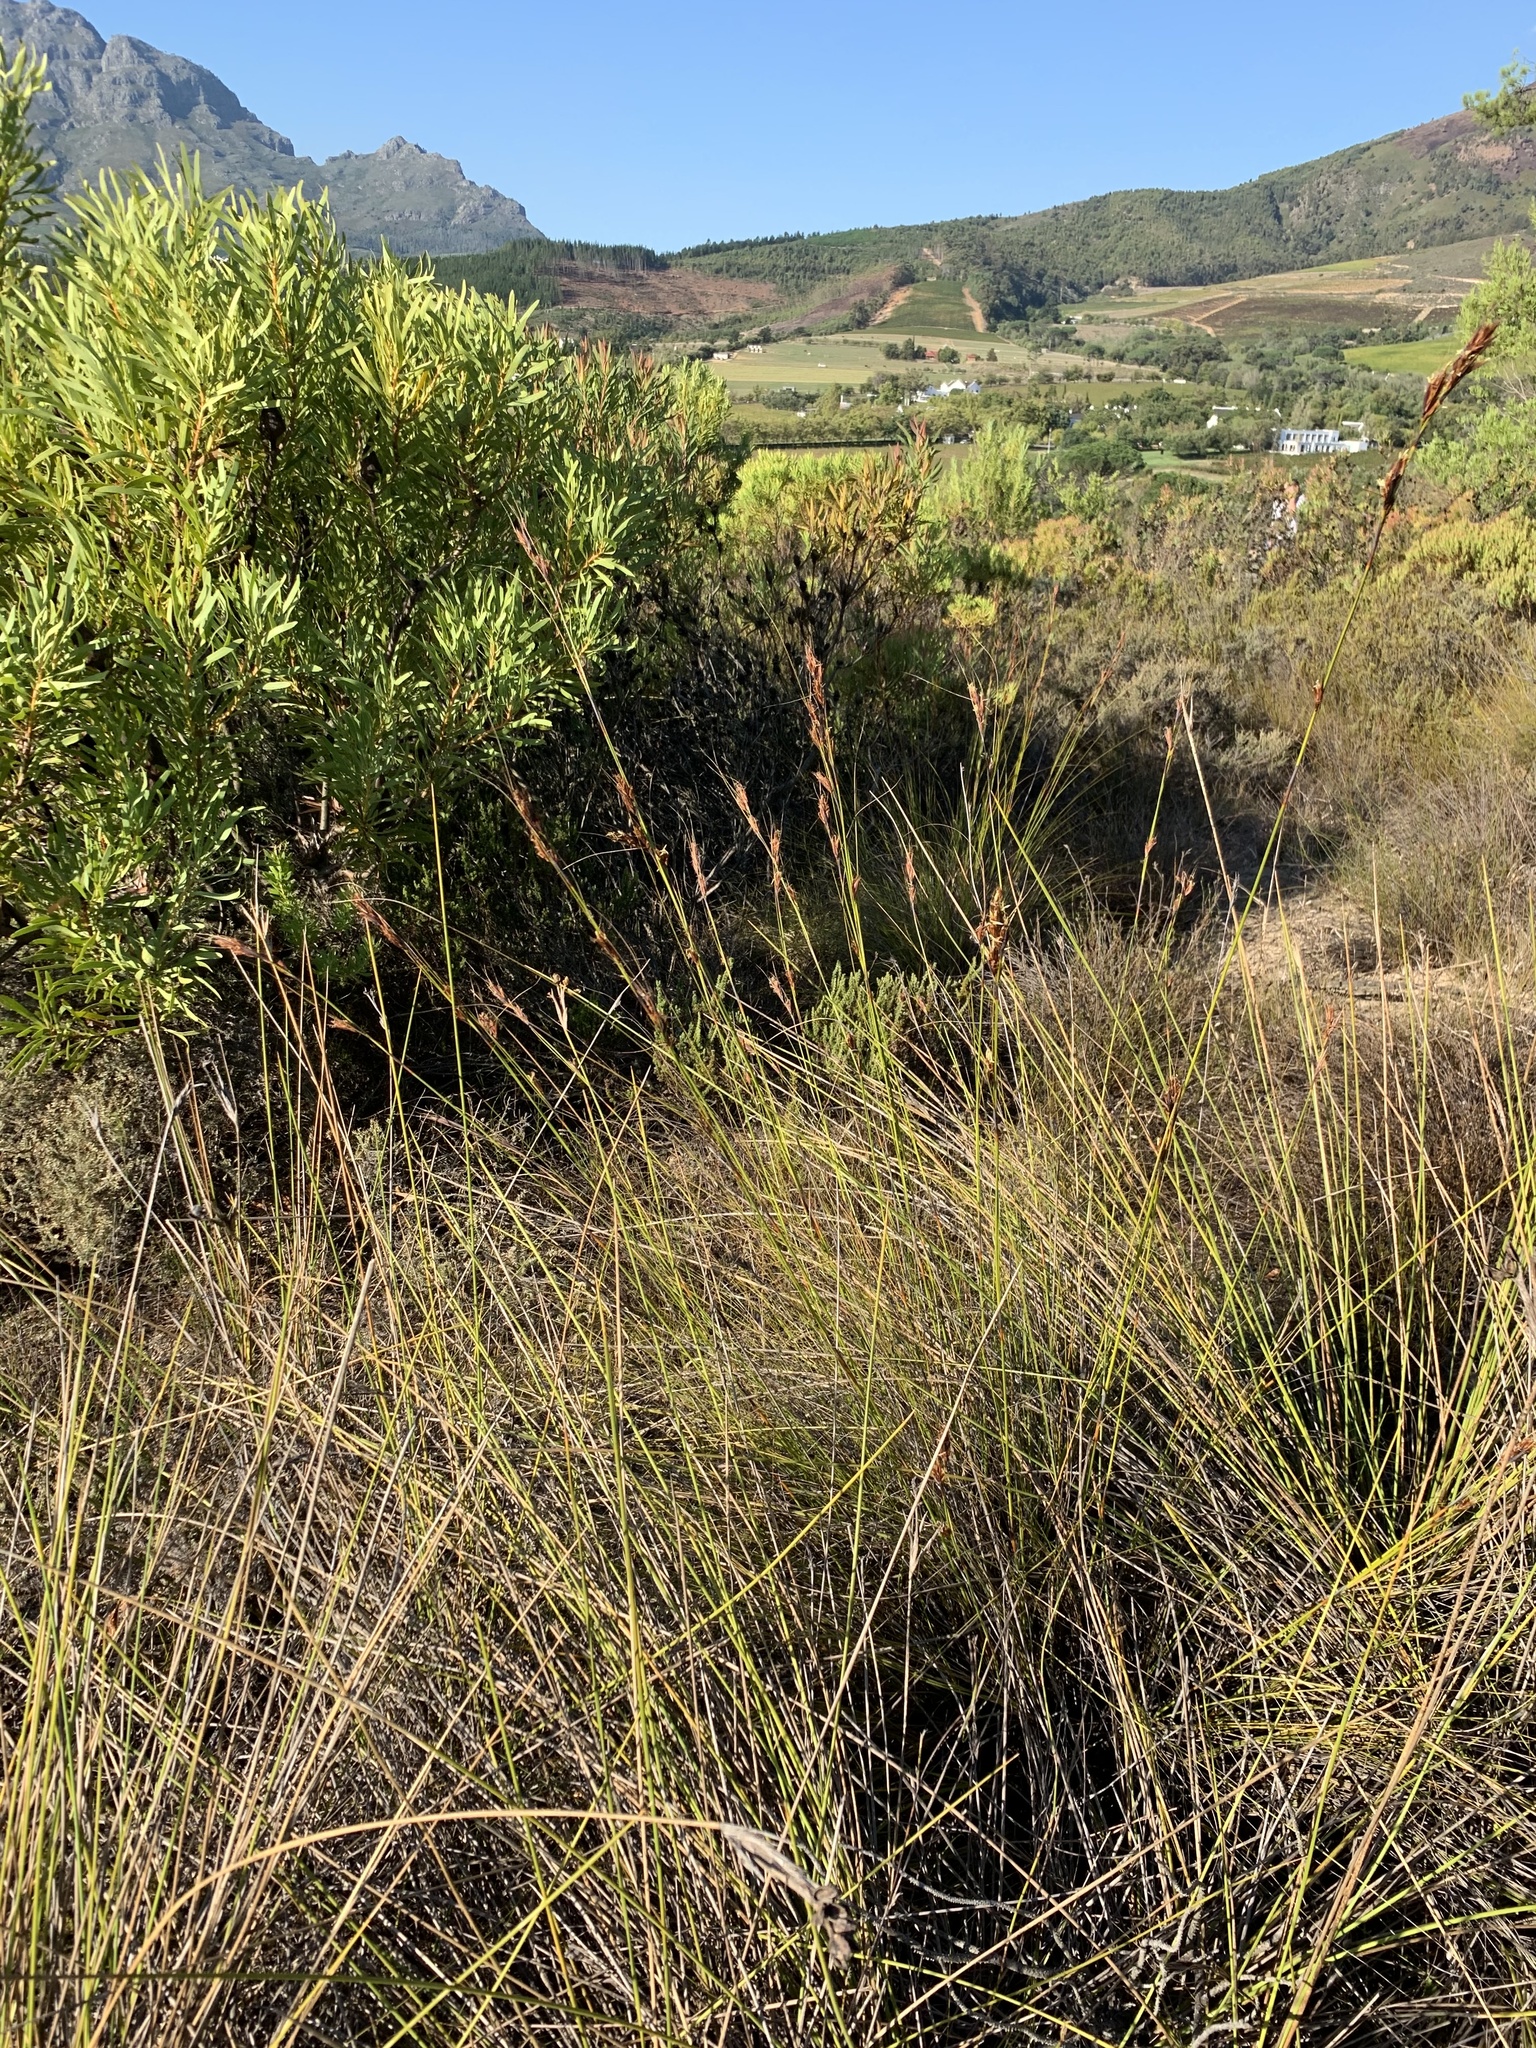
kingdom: Plantae
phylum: Tracheophyta
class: Liliopsida
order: Poales
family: Cyperaceae
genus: Tetraria
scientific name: Tetraria ustulata
